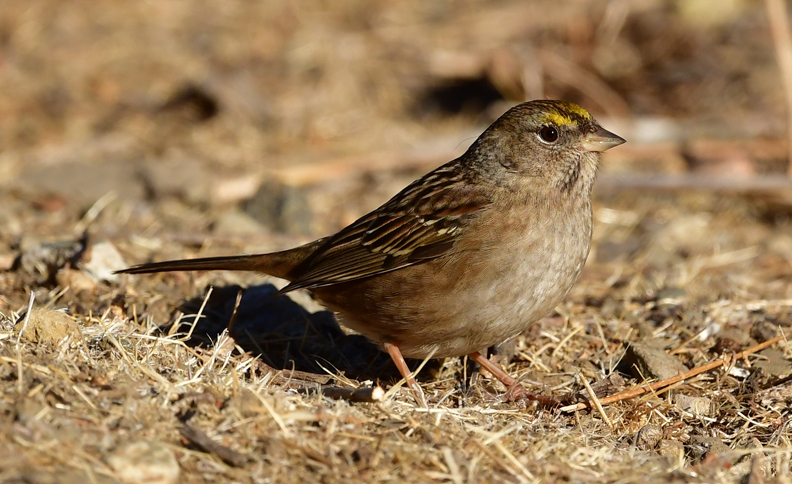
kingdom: Animalia
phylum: Chordata
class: Aves
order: Passeriformes
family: Passerellidae
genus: Zonotrichia
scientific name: Zonotrichia atricapilla
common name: Golden-crowned sparrow
